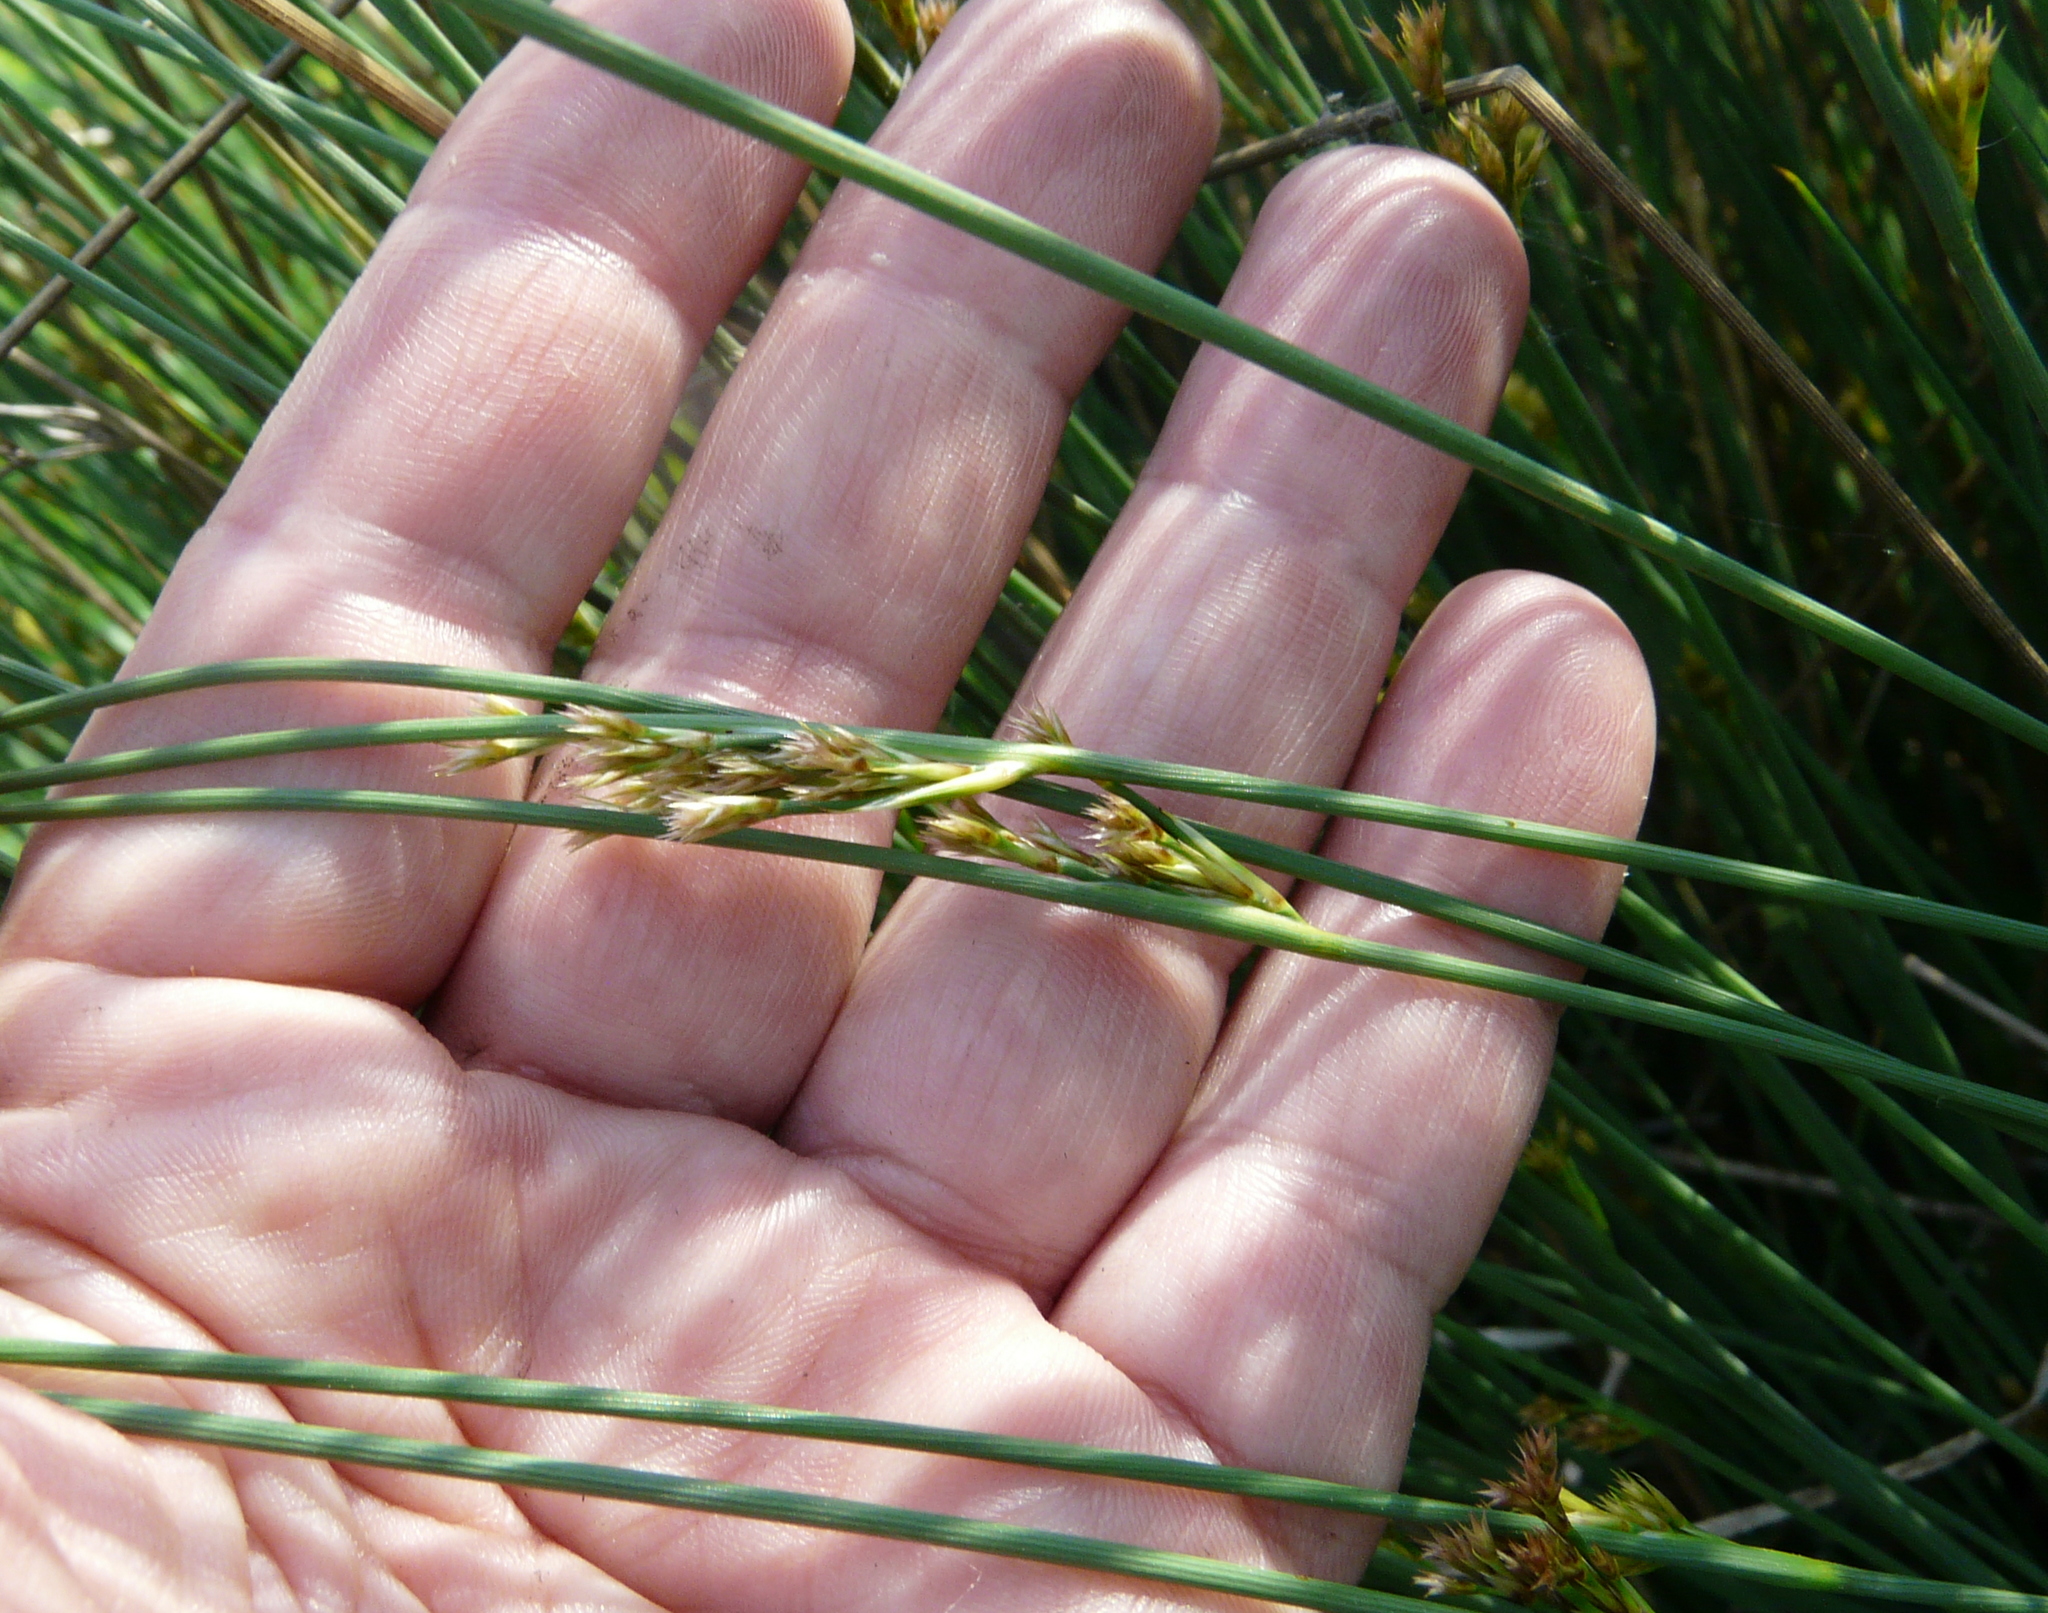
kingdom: Plantae
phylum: Tracheophyta
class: Liliopsida
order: Poales
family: Juncaceae
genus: Juncus
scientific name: Juncus inflexus
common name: Hard rush
